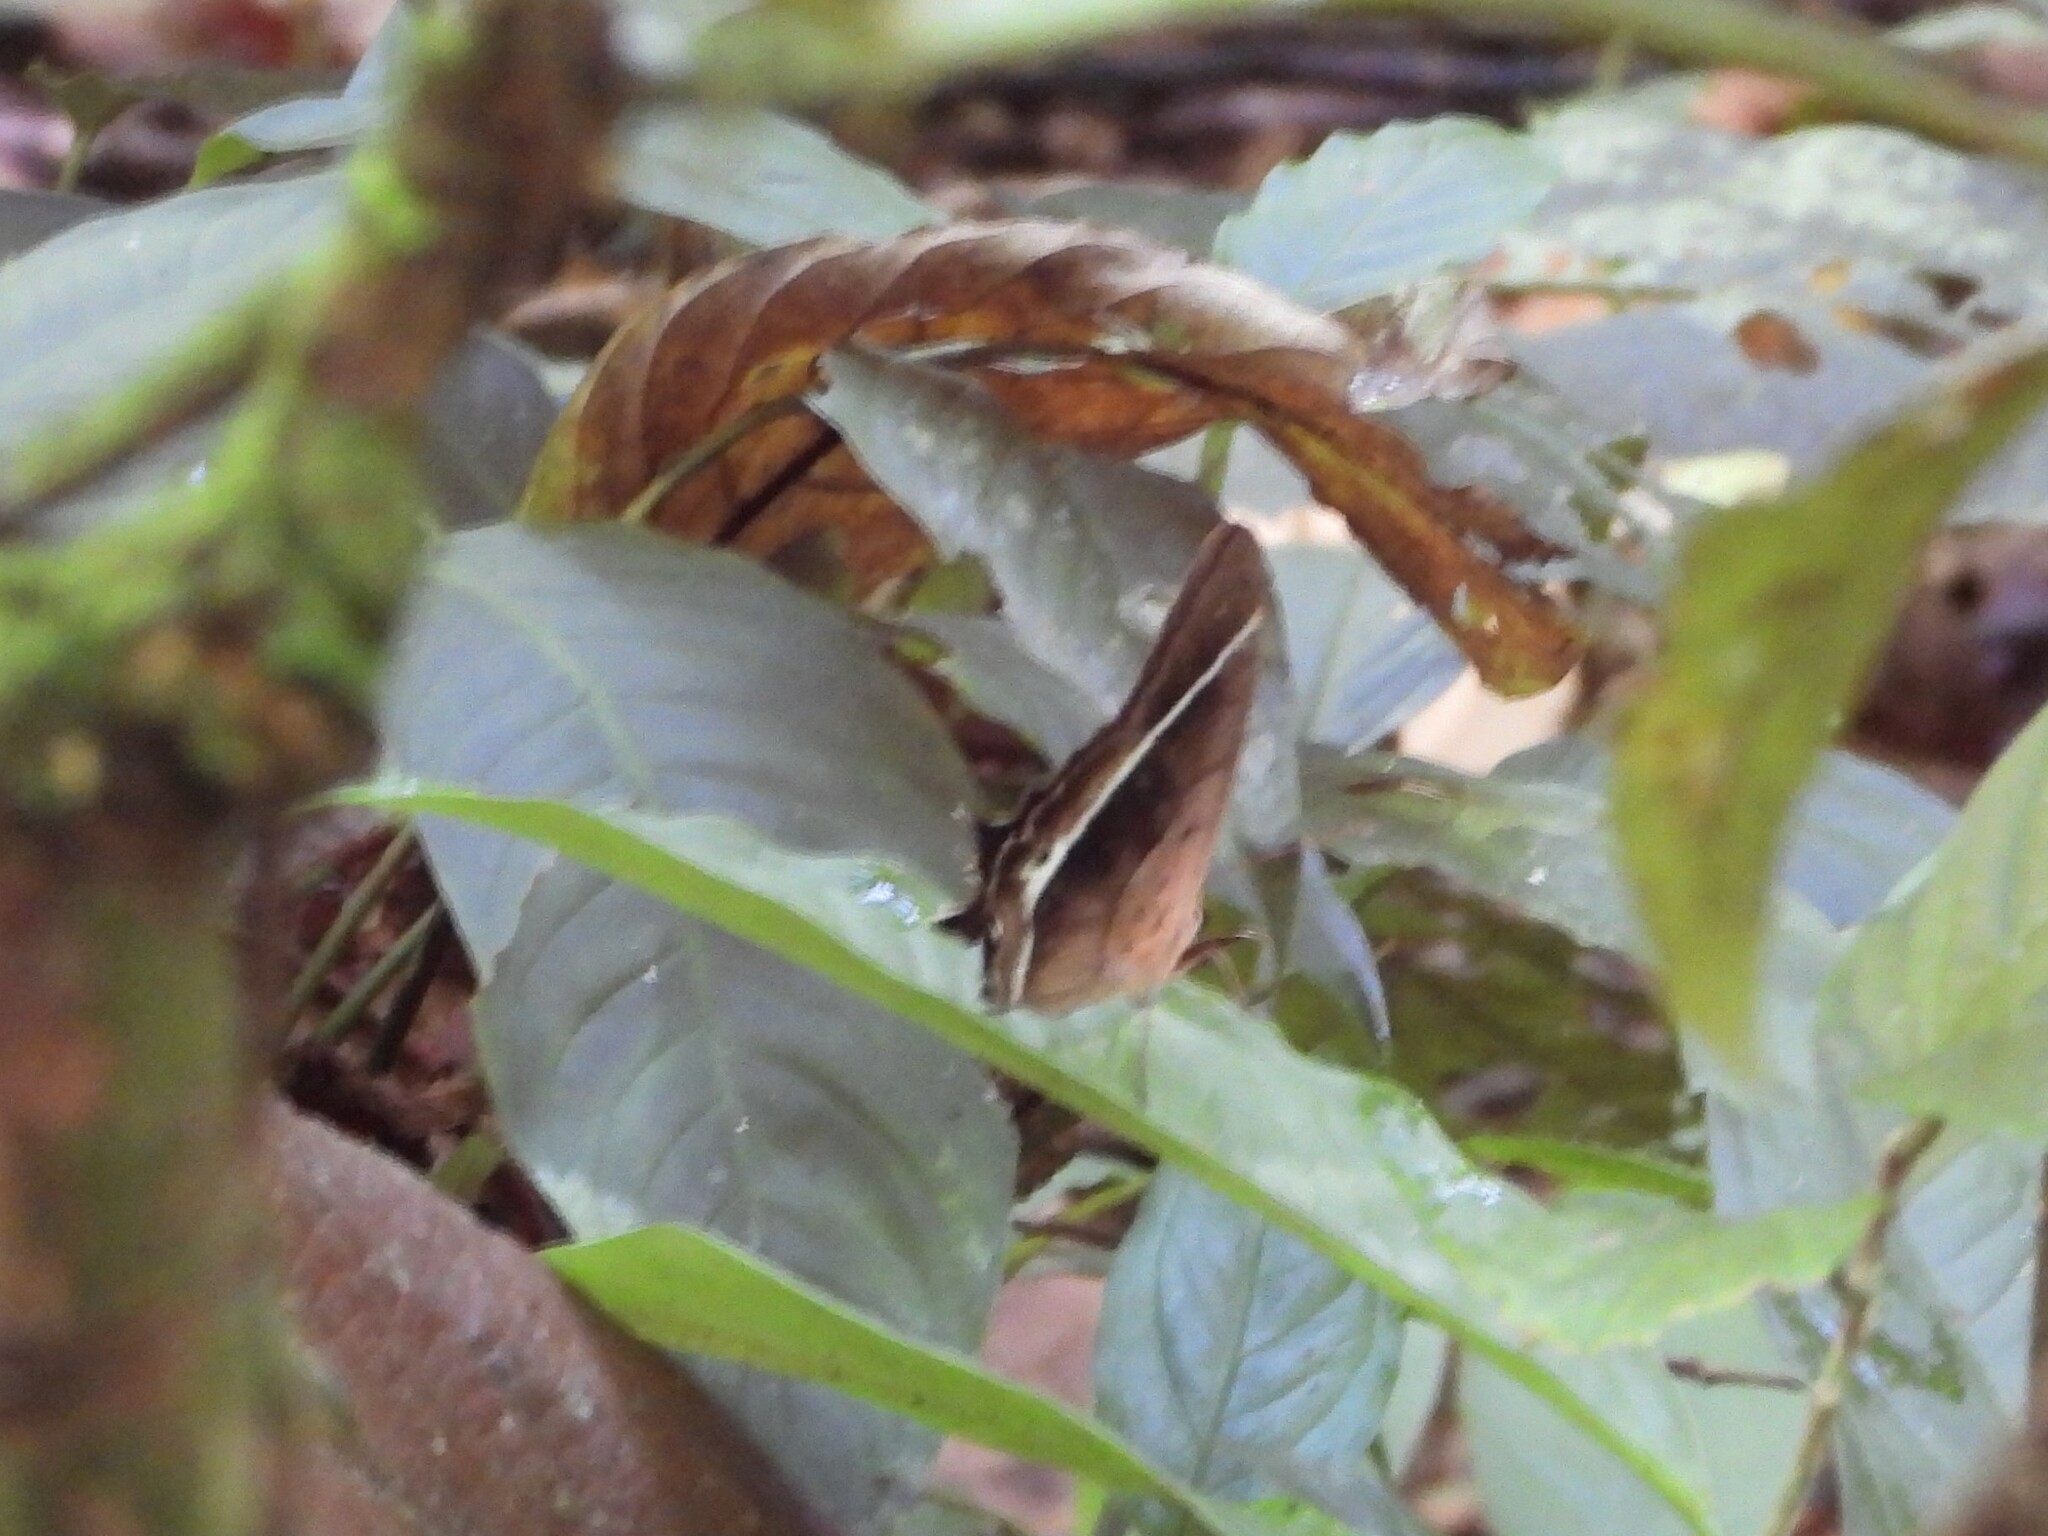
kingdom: Animalia
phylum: Arthropoda
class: Insecta
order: Lepidoptera
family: Nymphalidae
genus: Antirrhea
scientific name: Antirrhea philaretes
